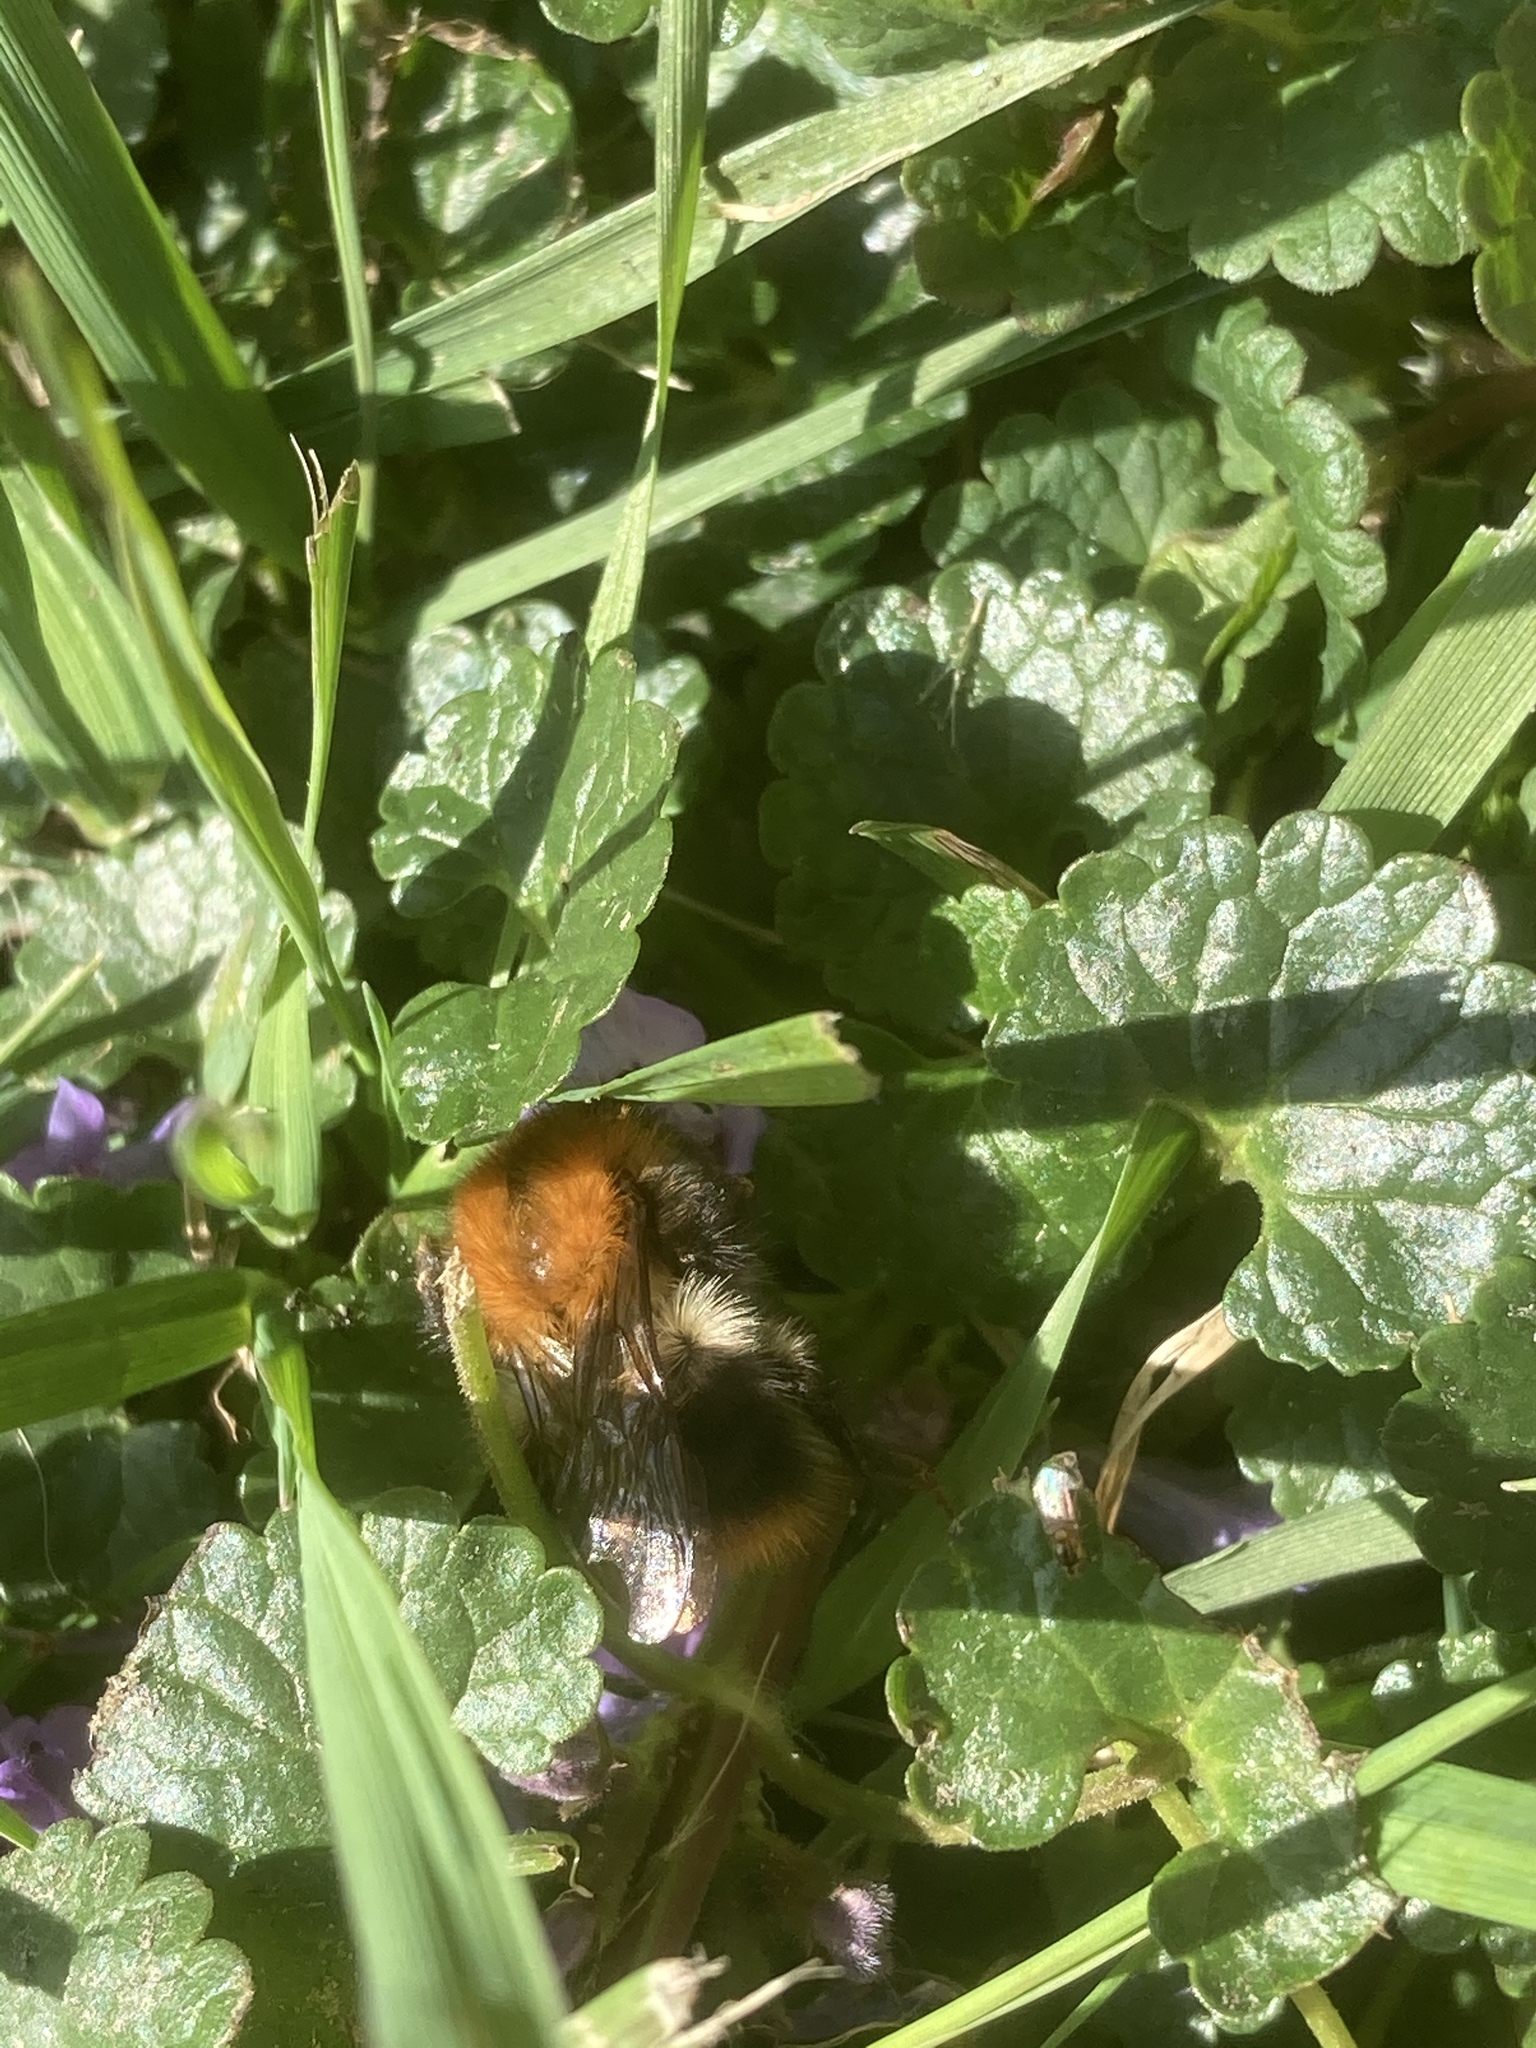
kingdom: Animalia
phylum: Arthropoda
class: Insecta
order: Hymenoptera
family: Apidae
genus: Bombus
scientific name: Bombus pascuorum
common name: Common carder bee
